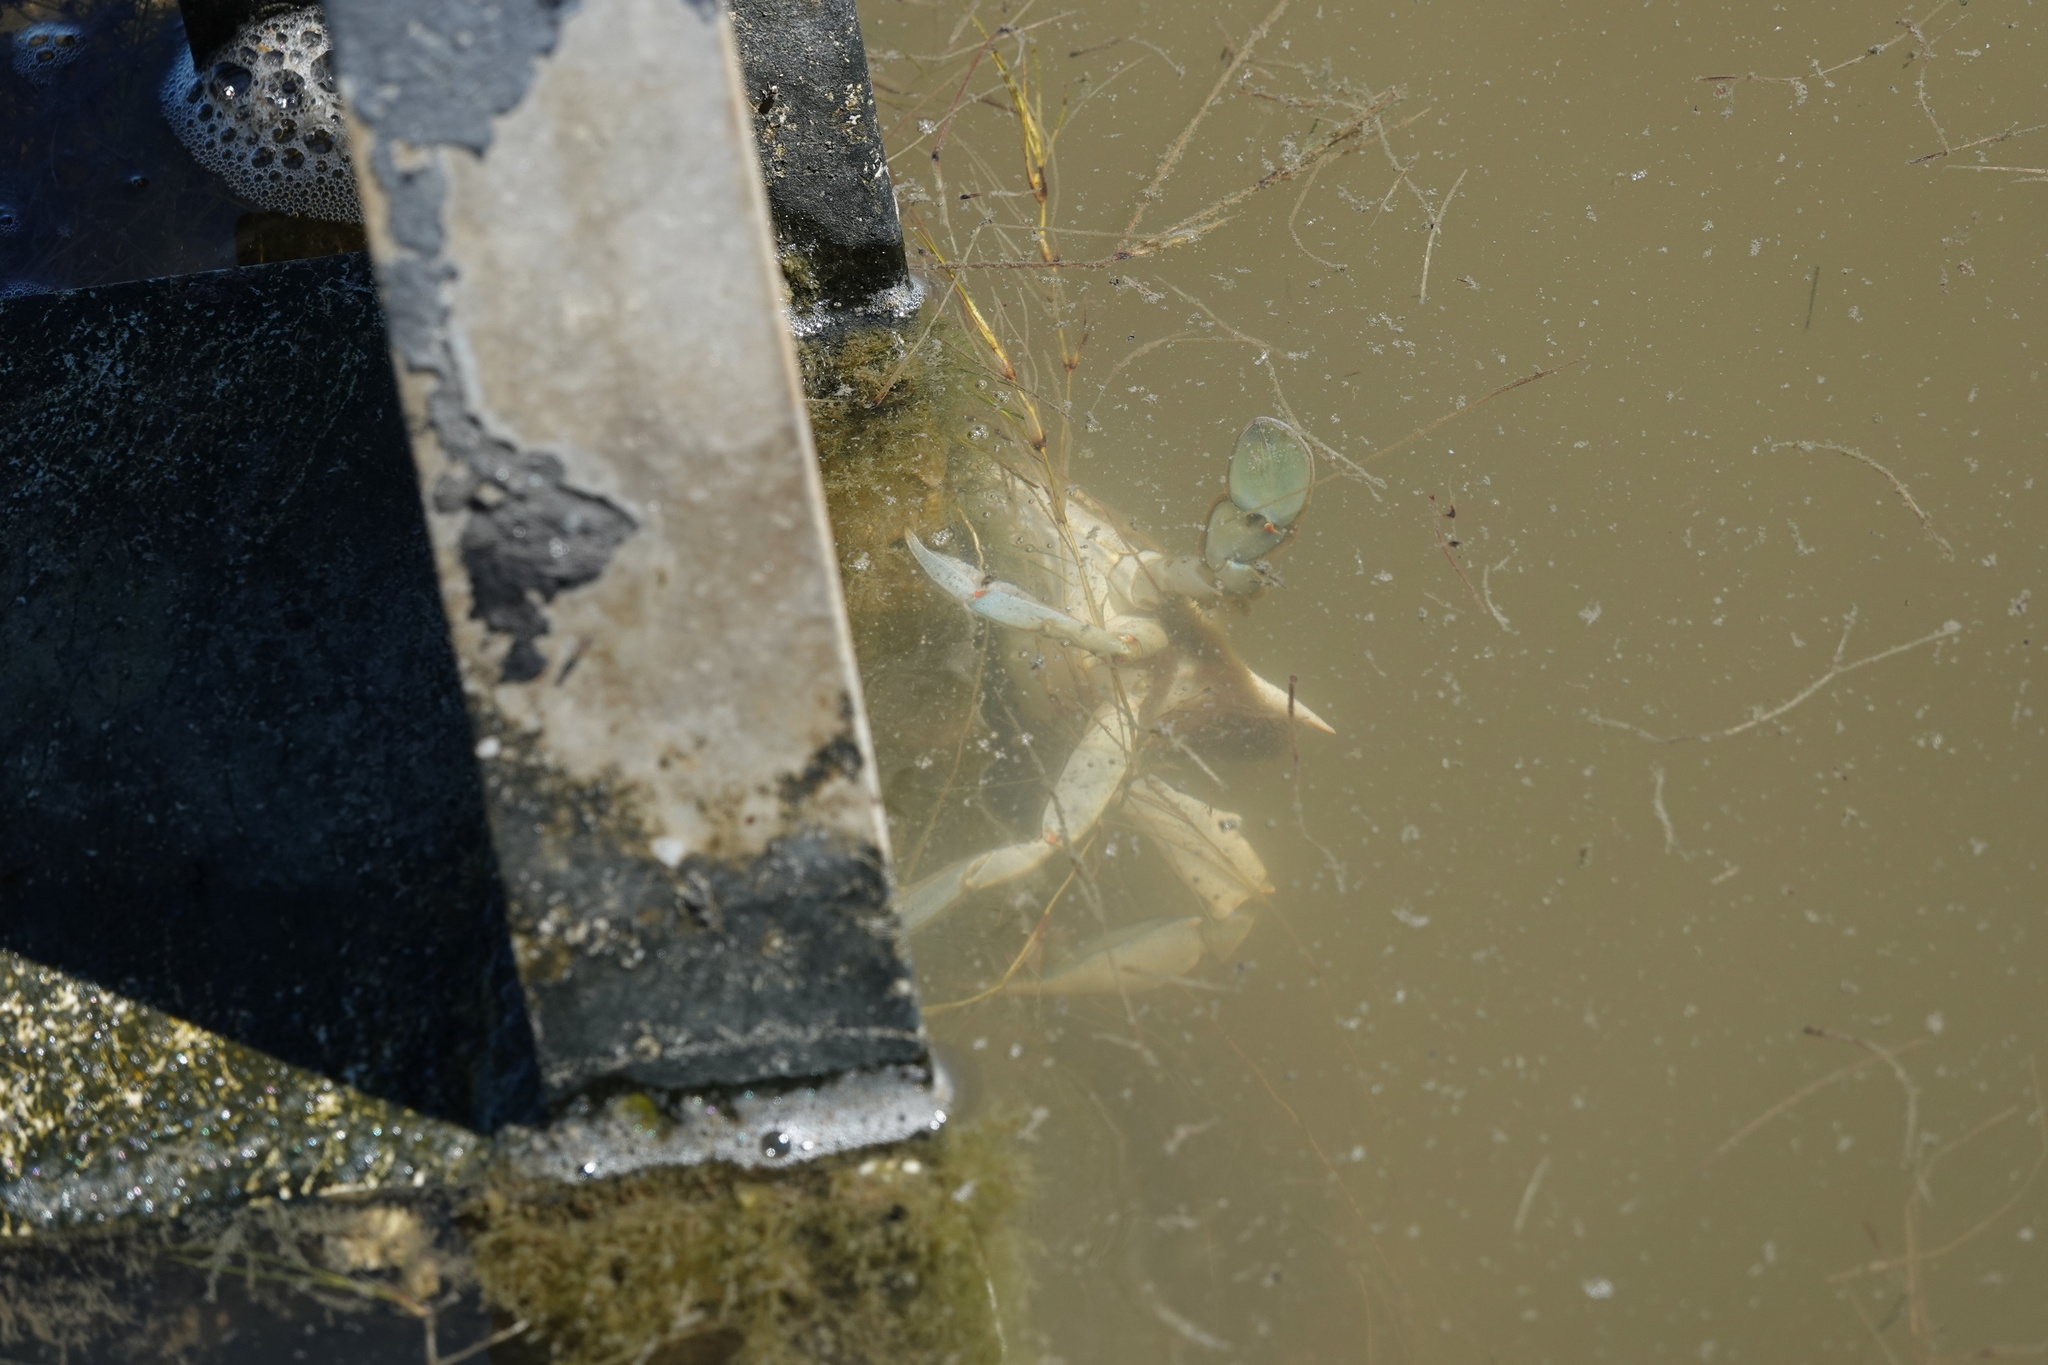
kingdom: Animalia
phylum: Arthropoda
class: Malacostraca
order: Decapoda
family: Portunidae
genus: Callinectes
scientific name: Callinectes sapidus
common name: Blue crab
